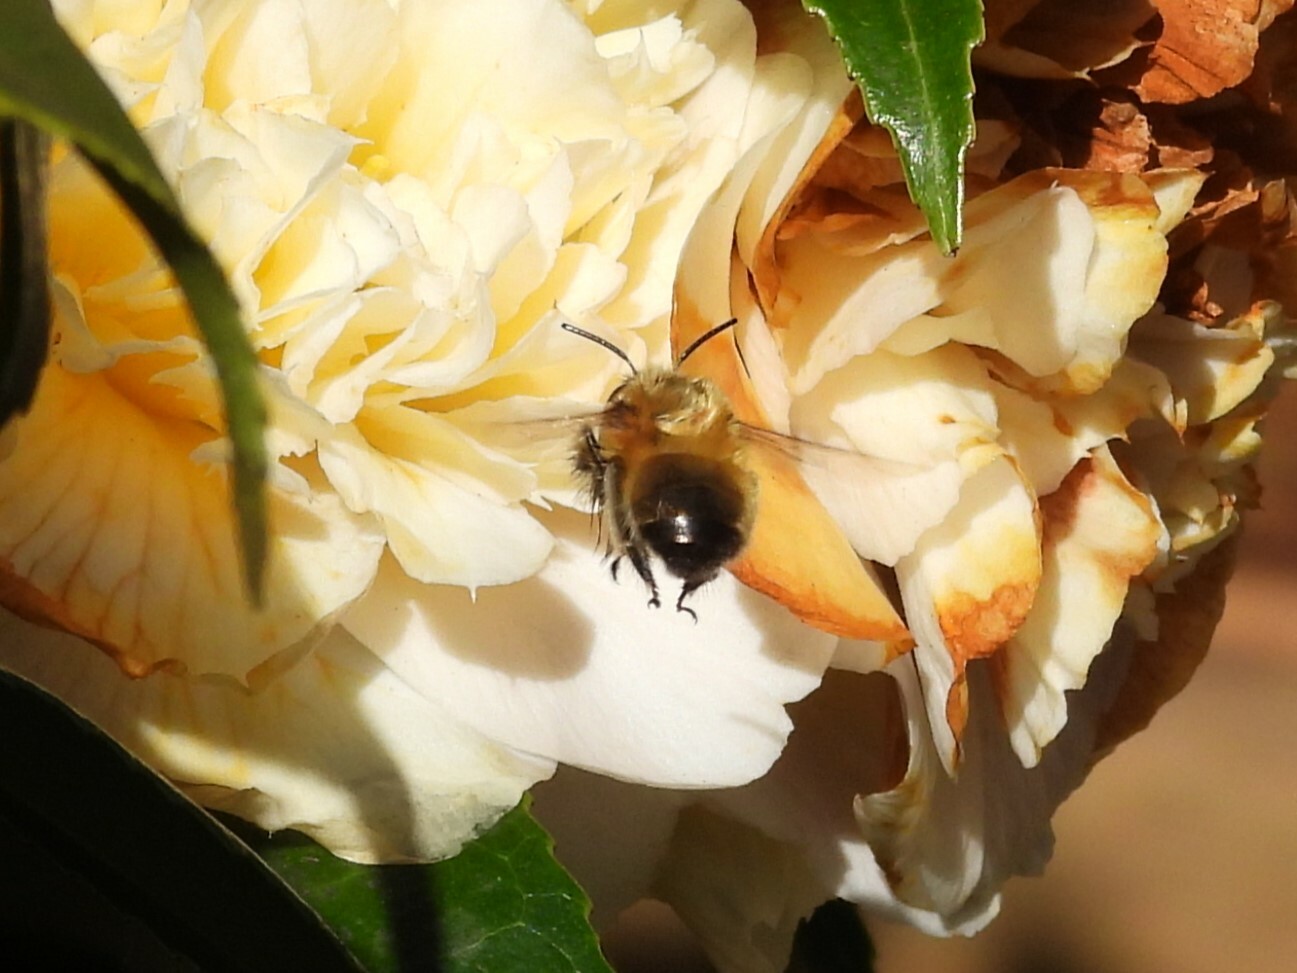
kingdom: Animalia
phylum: Arthropoda
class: Insecta
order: Hymenoptera
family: Apidae
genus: Anthophora
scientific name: Anthophora plumipes
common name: Hairy-footed flower bee
